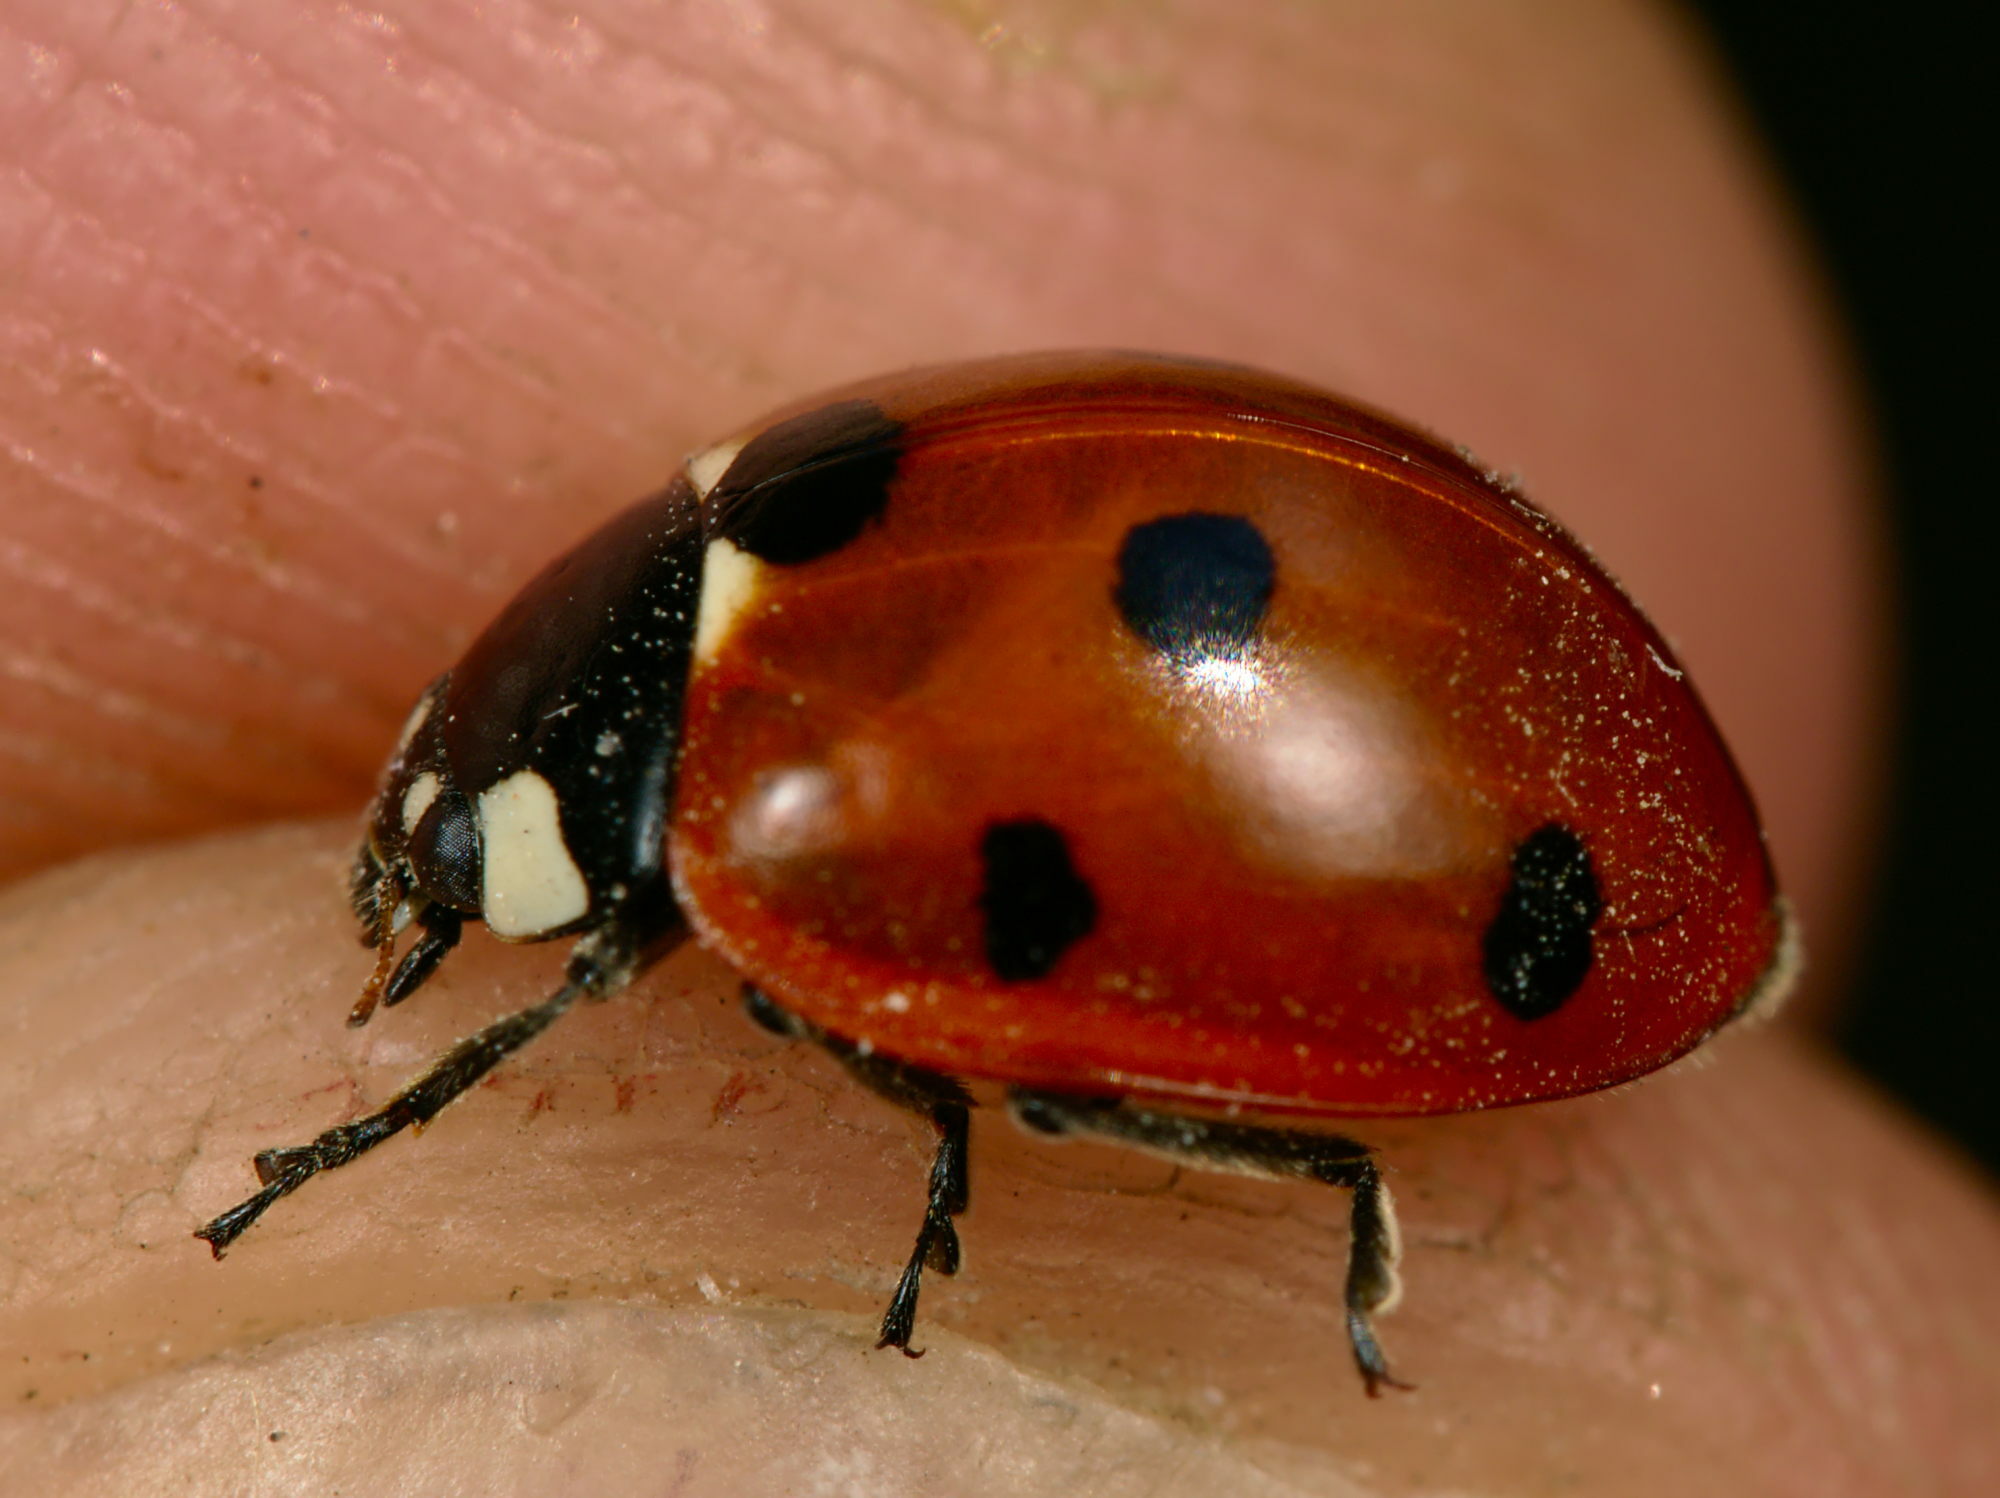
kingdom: Animalia
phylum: Arthropoda
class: Insecta
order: Coleoptera
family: Coccinellidae
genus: Coccinella
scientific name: Coccinella septempunctata
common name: Sevenspotted lady beetle
